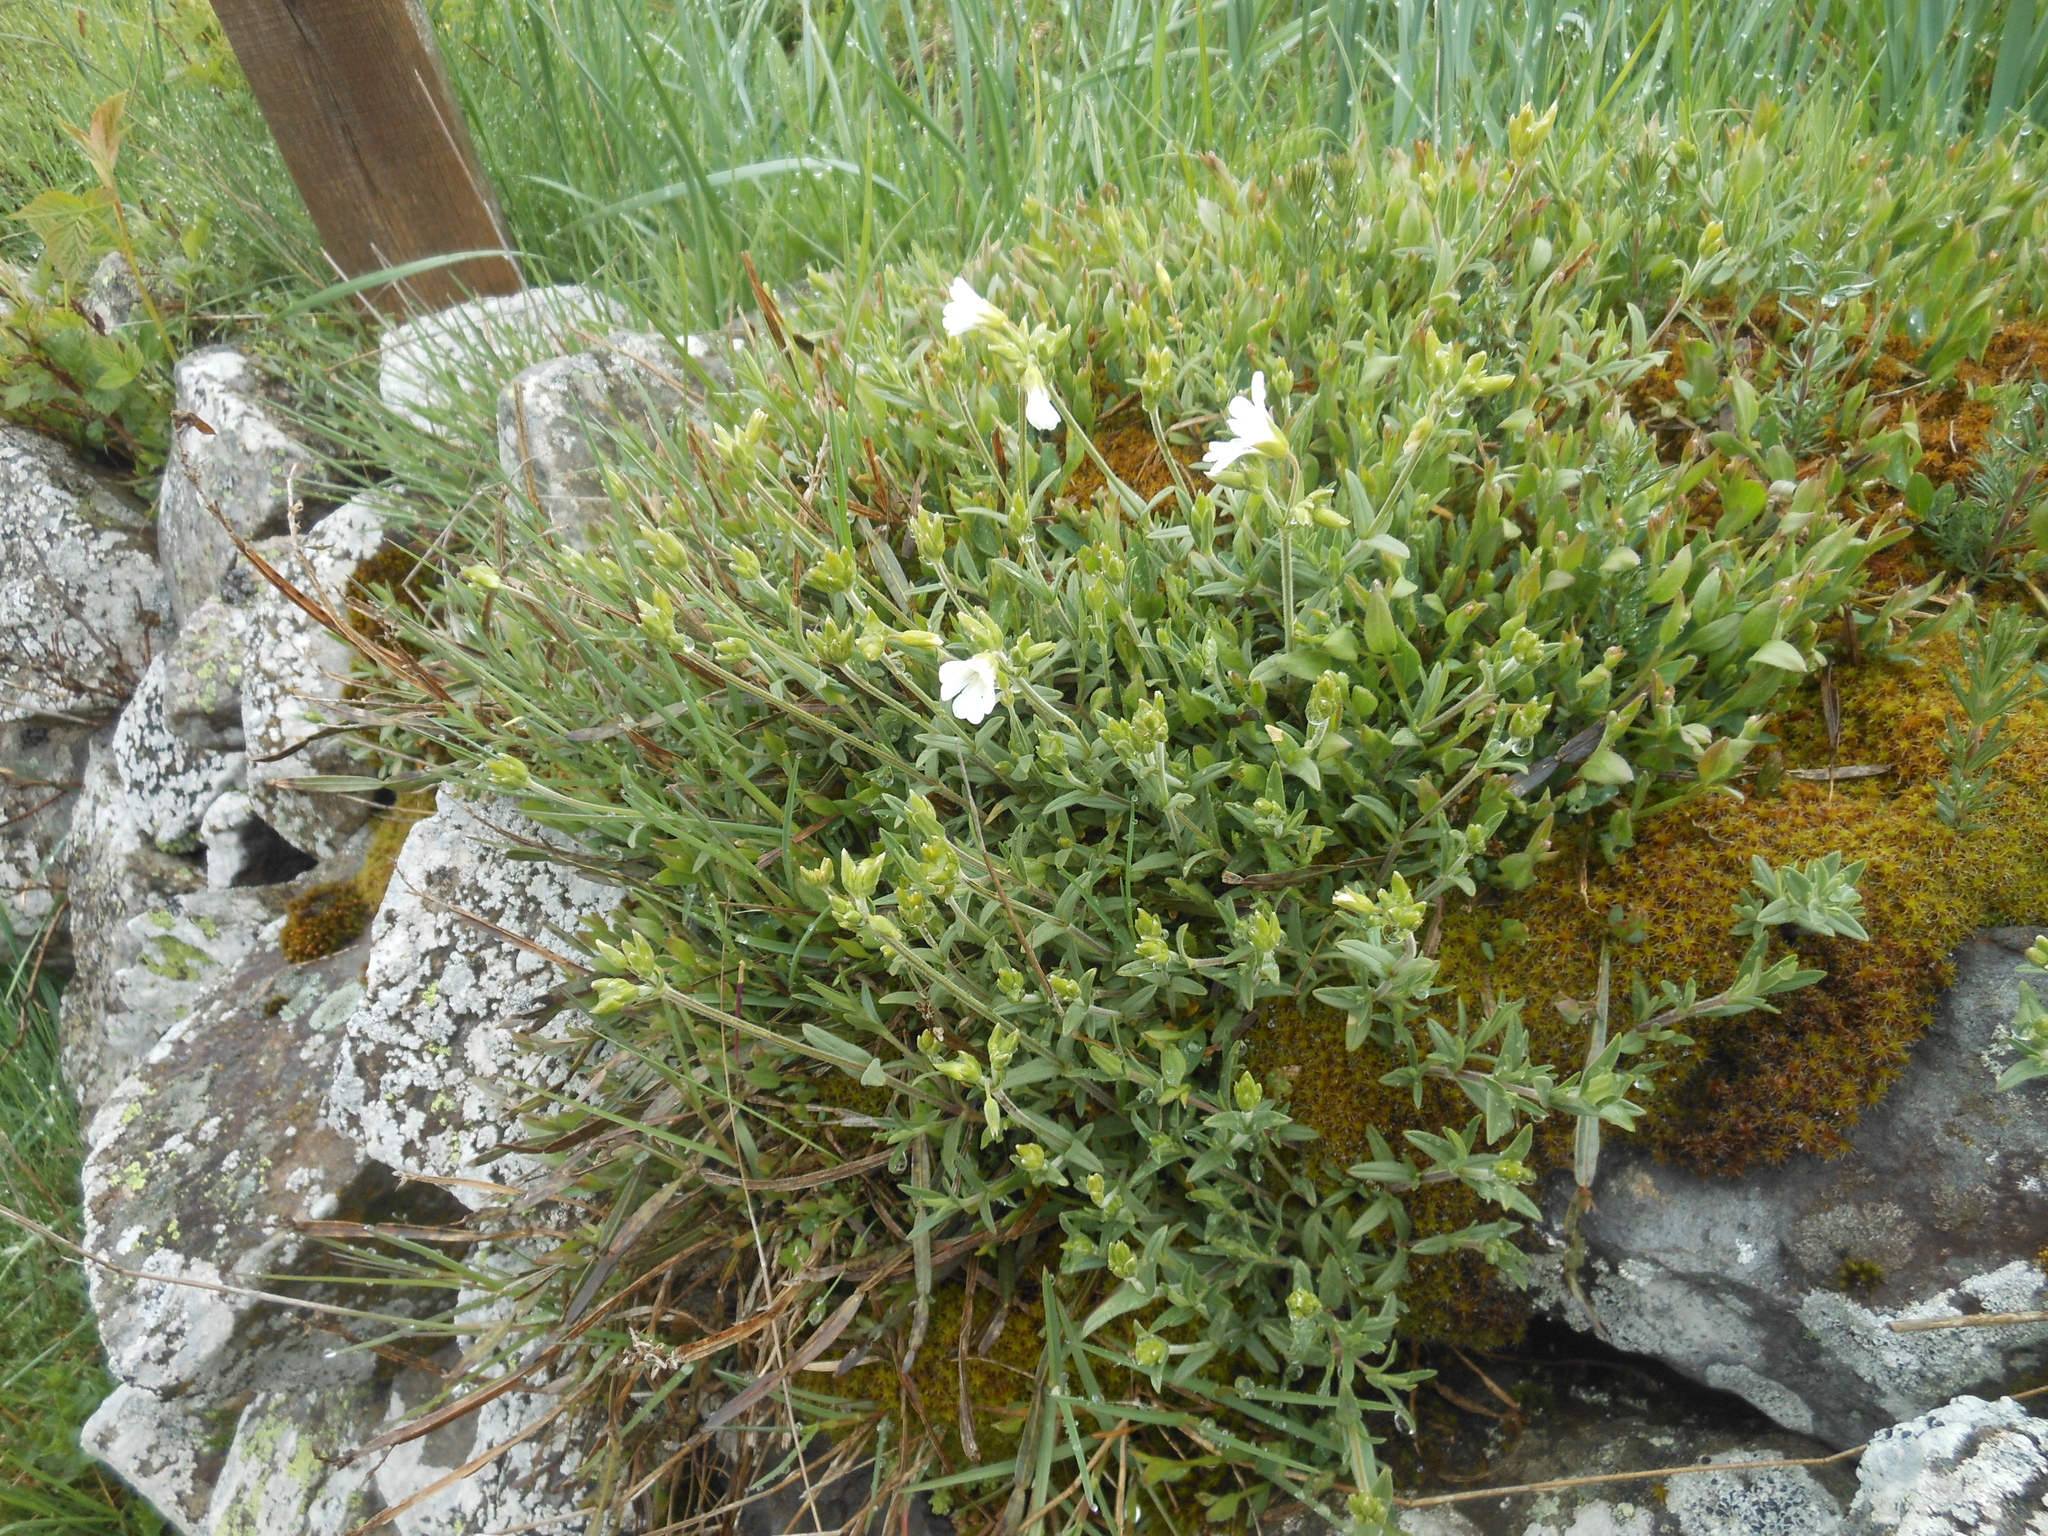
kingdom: Plantae
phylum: Tracheophyta
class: Magnoliopsida
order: Caryophyllales
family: Caryophyllaceae
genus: Cerastium
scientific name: Cerastium arvense
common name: Field mouse-ear
